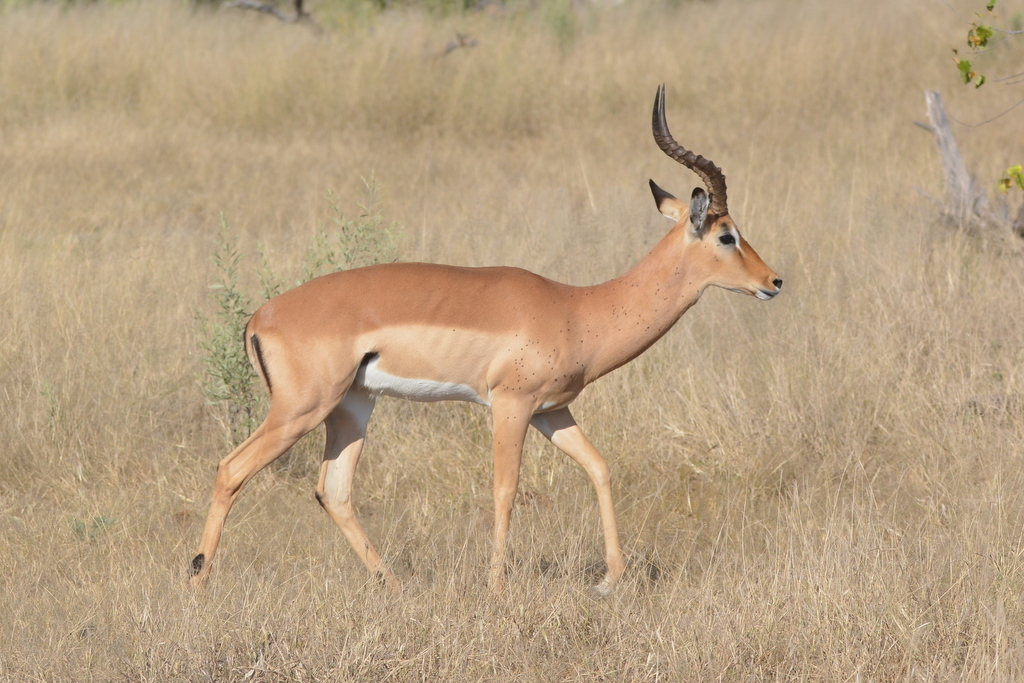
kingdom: Animalia
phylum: Chordata
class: Mammalia
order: Artiodactyla
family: Bovidae
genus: Aepyceros
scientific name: Aepyceros melampus
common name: Impala
